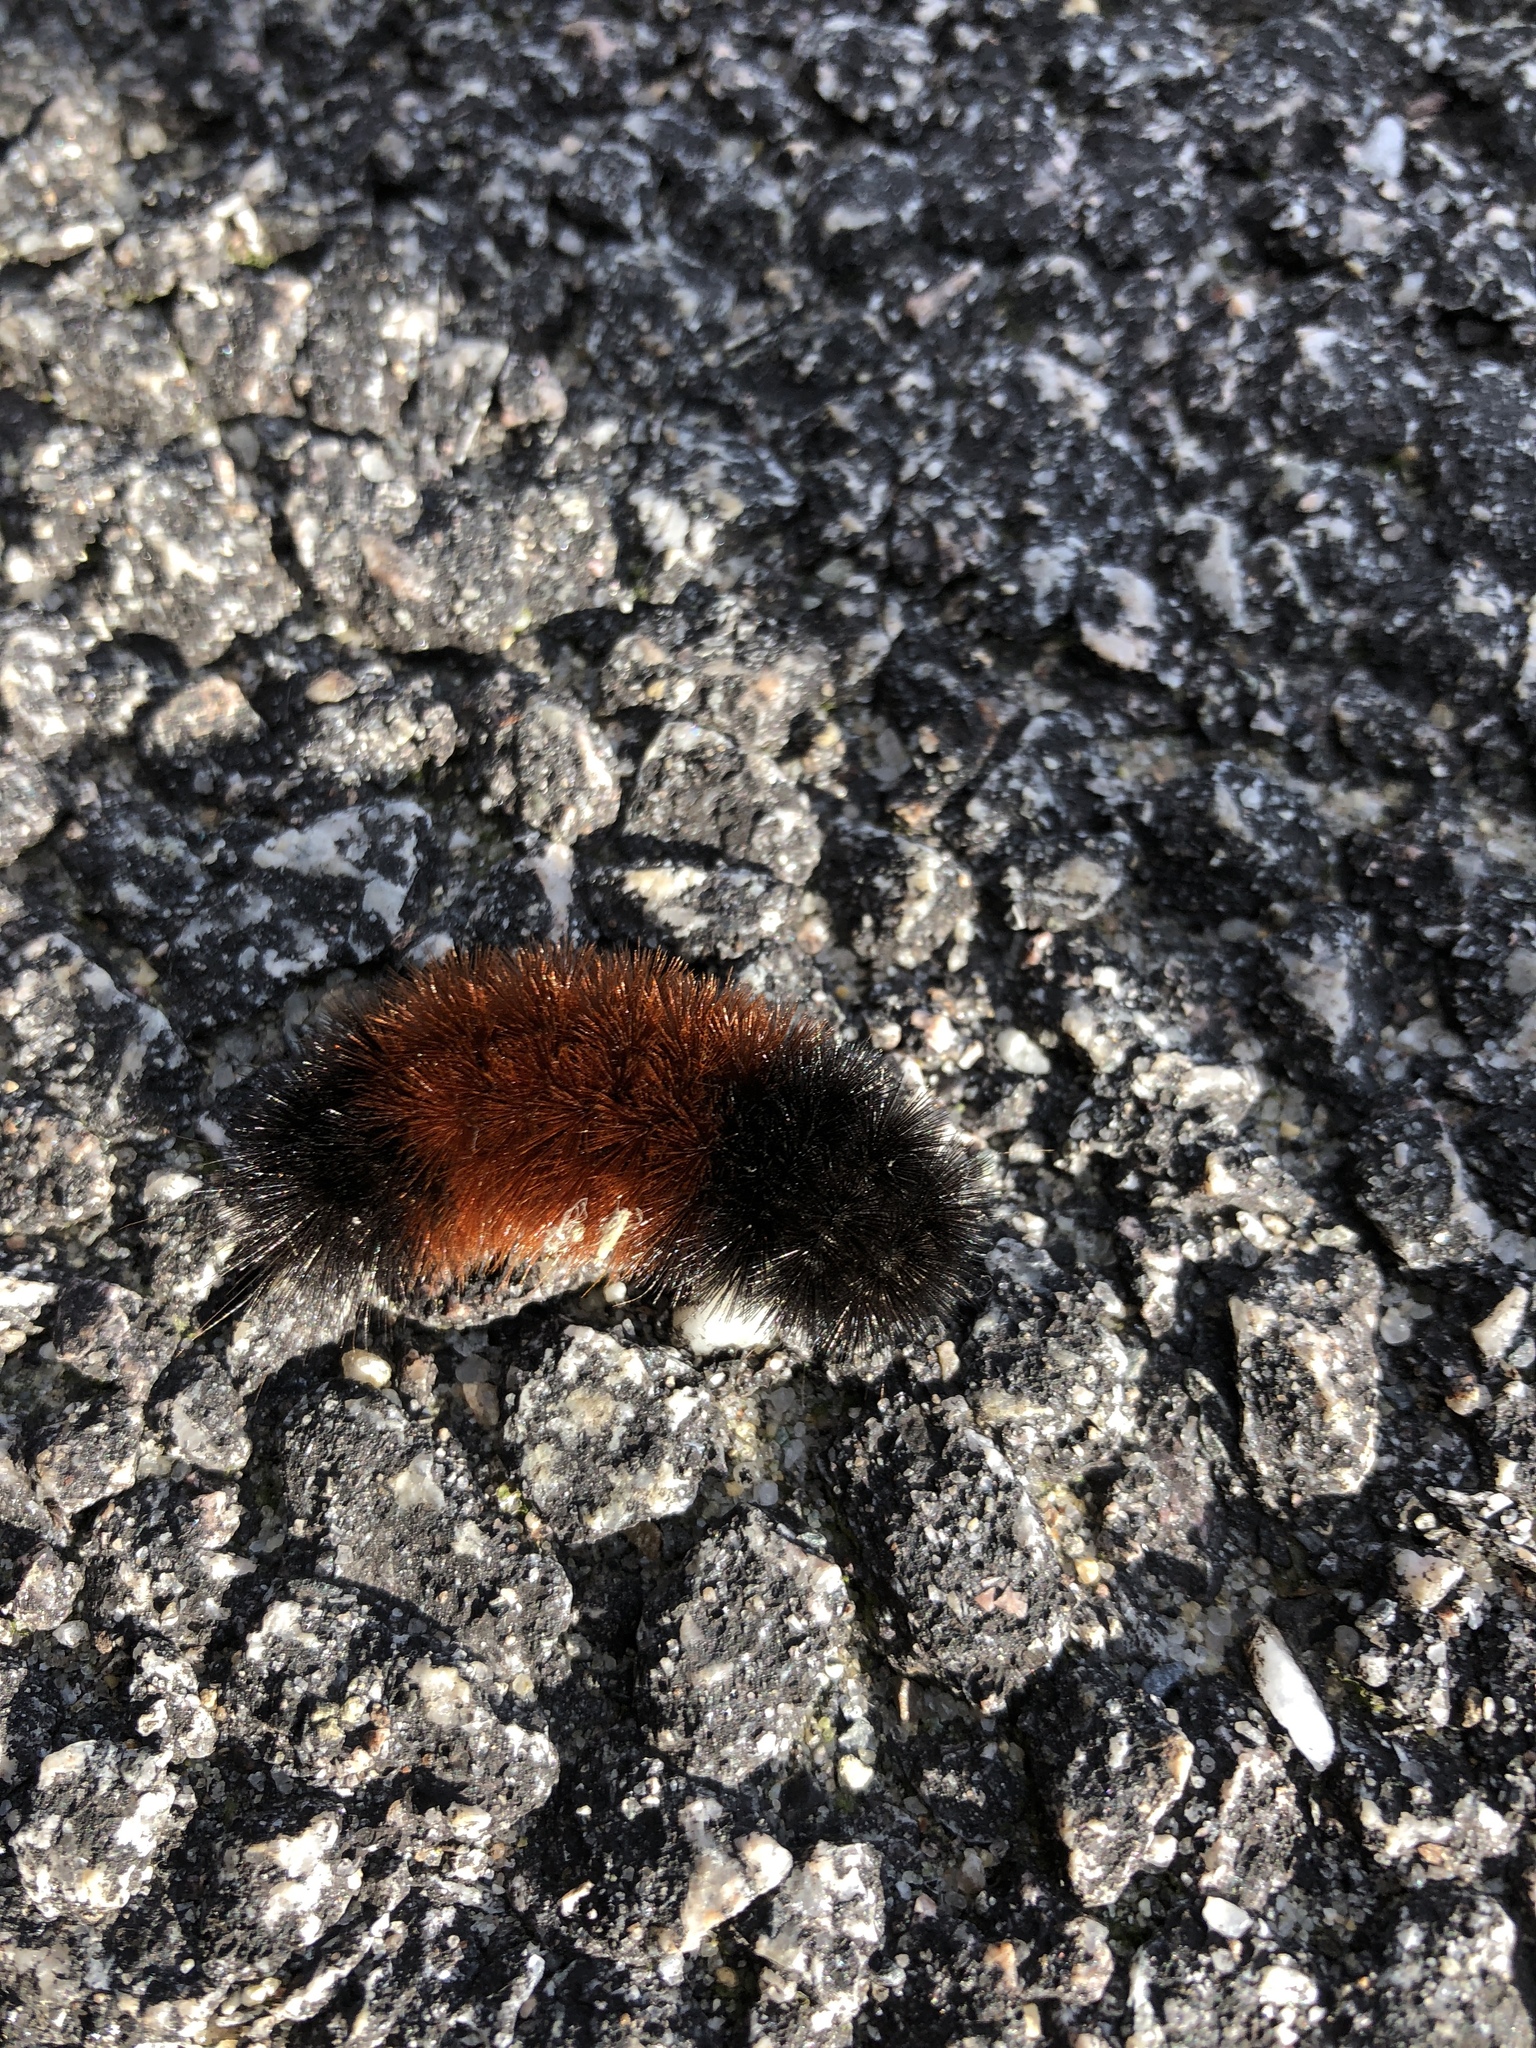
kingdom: Animalia
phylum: Arthropoda
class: Insecta
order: Lepidoptera
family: Erebidae
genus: Pyrrharctia
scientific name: Pyrrharctia isabella
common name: Isabella tiger moth
